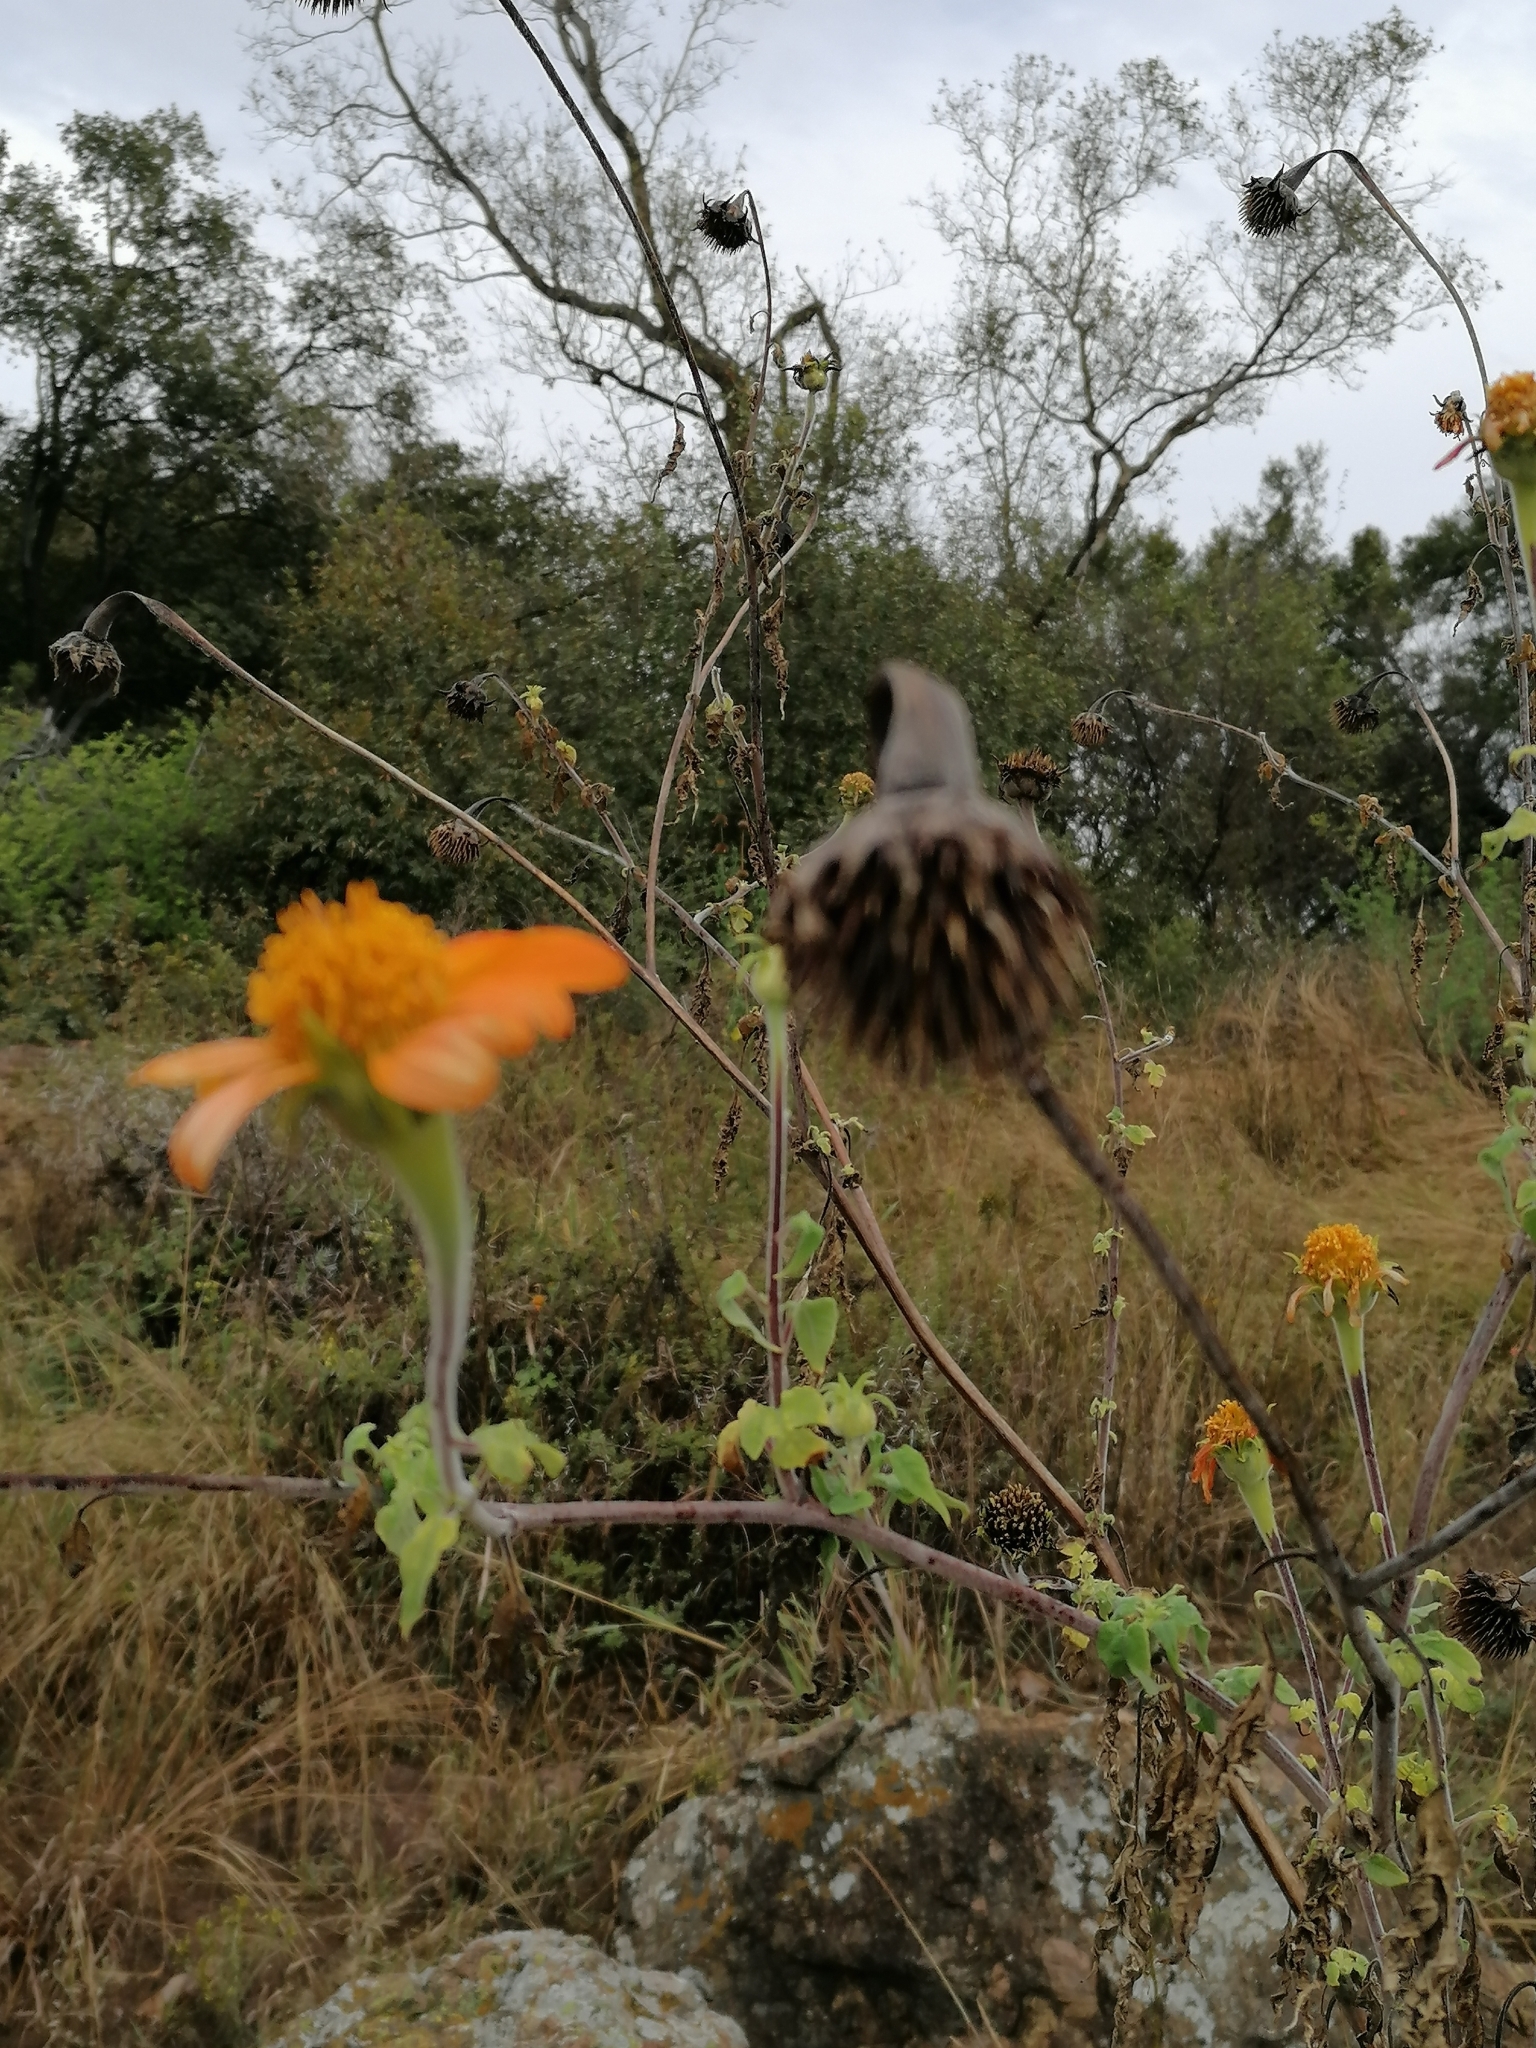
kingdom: Plantae
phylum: Tracheophyta
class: Magnoliopsida
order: Asterales
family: Asteraceae
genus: Tithonia
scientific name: Tithonia rotundifolia
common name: Sunflower
